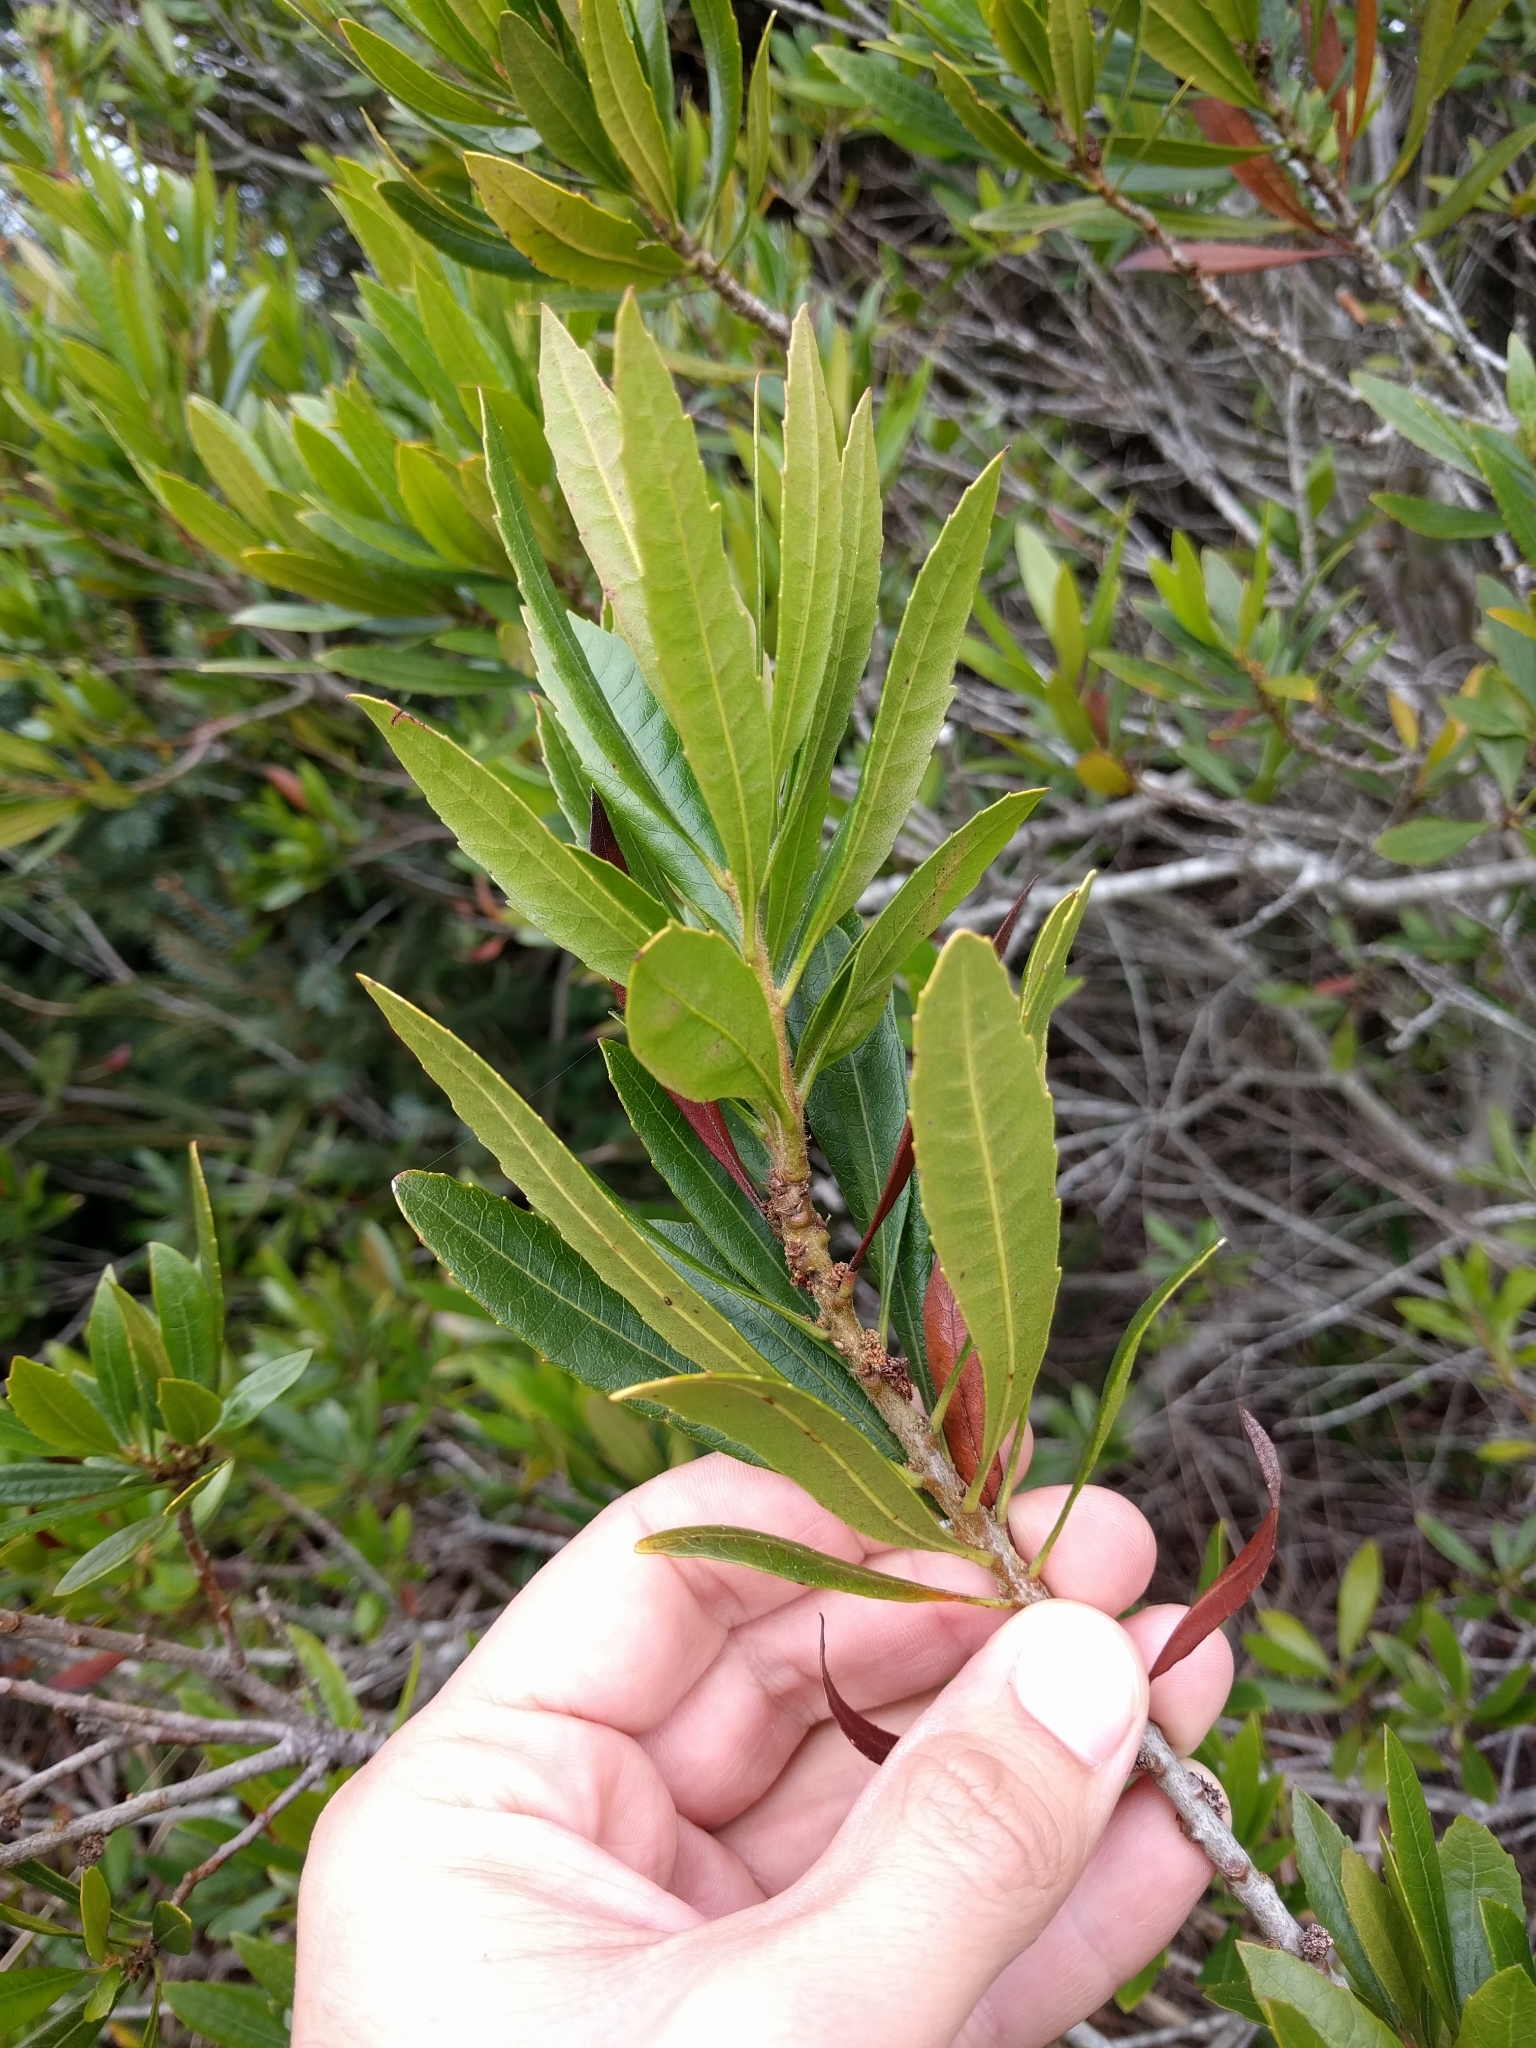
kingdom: Plantae
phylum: Tracheophyta
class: Magnoliopsida
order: Fagales
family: Myricaceae
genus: Morella
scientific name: Morella californica
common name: California wax-myrtle
